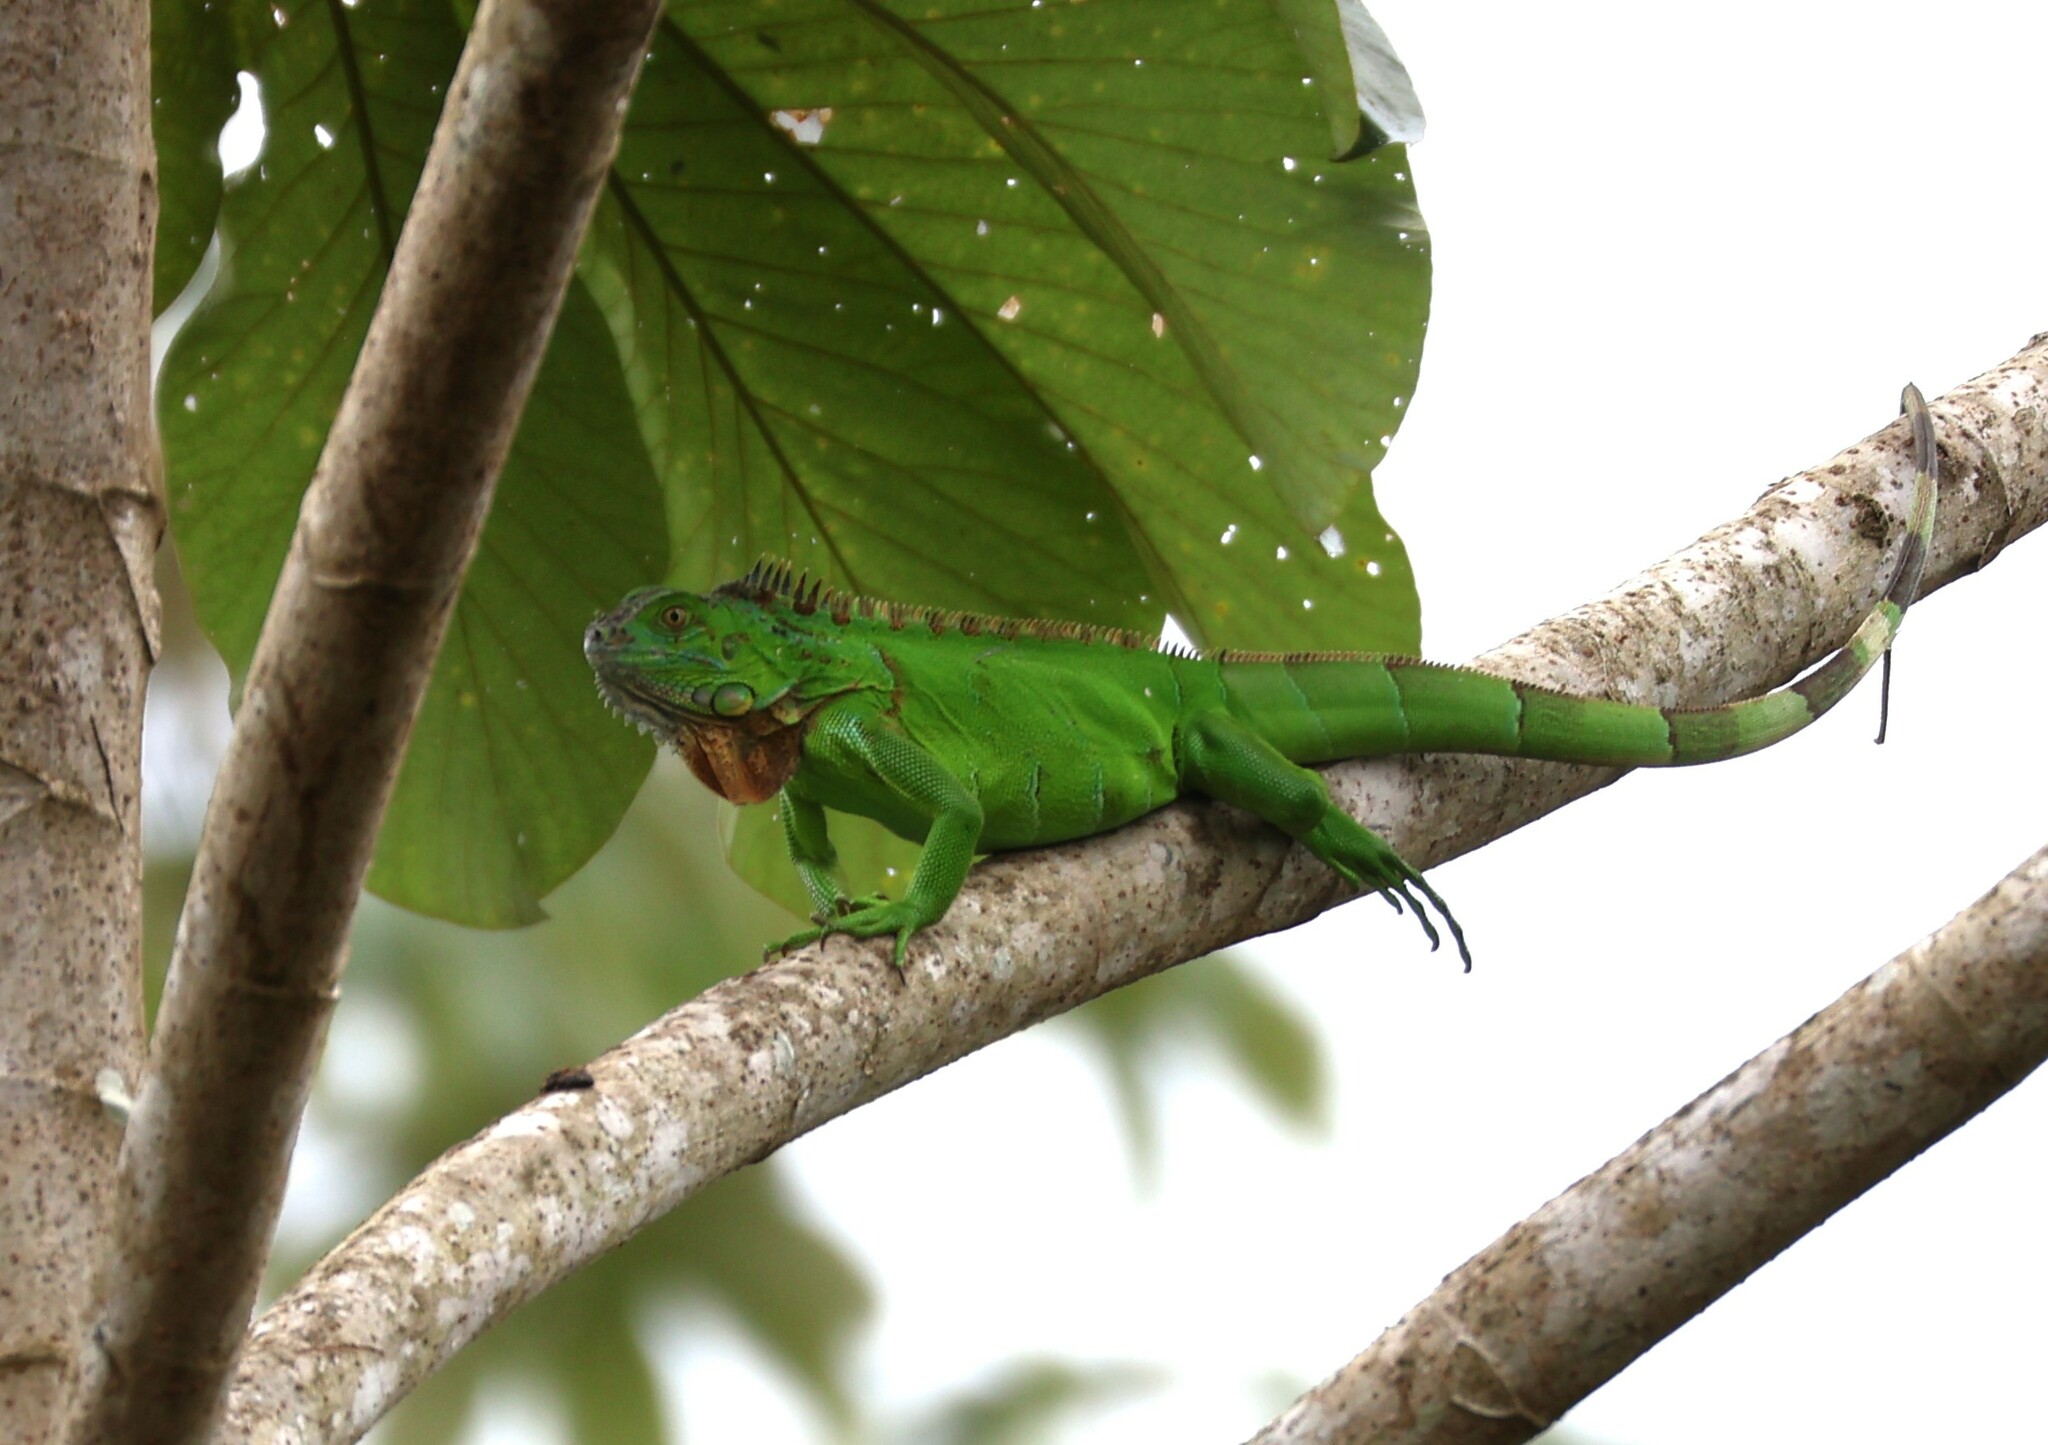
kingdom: Animalia
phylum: Chordata
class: Squamata
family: Iguanidae
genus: Iguana
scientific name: Iguana iguana
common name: Green iguana
